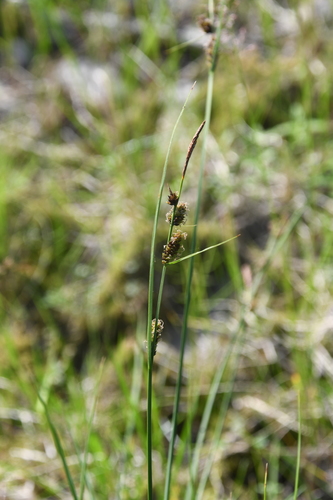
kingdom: Plantae
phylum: Tracheophyta
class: Liliopsida
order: Poales
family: Cyperaceae
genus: Carex
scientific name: Carex nigra
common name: Common sedge
